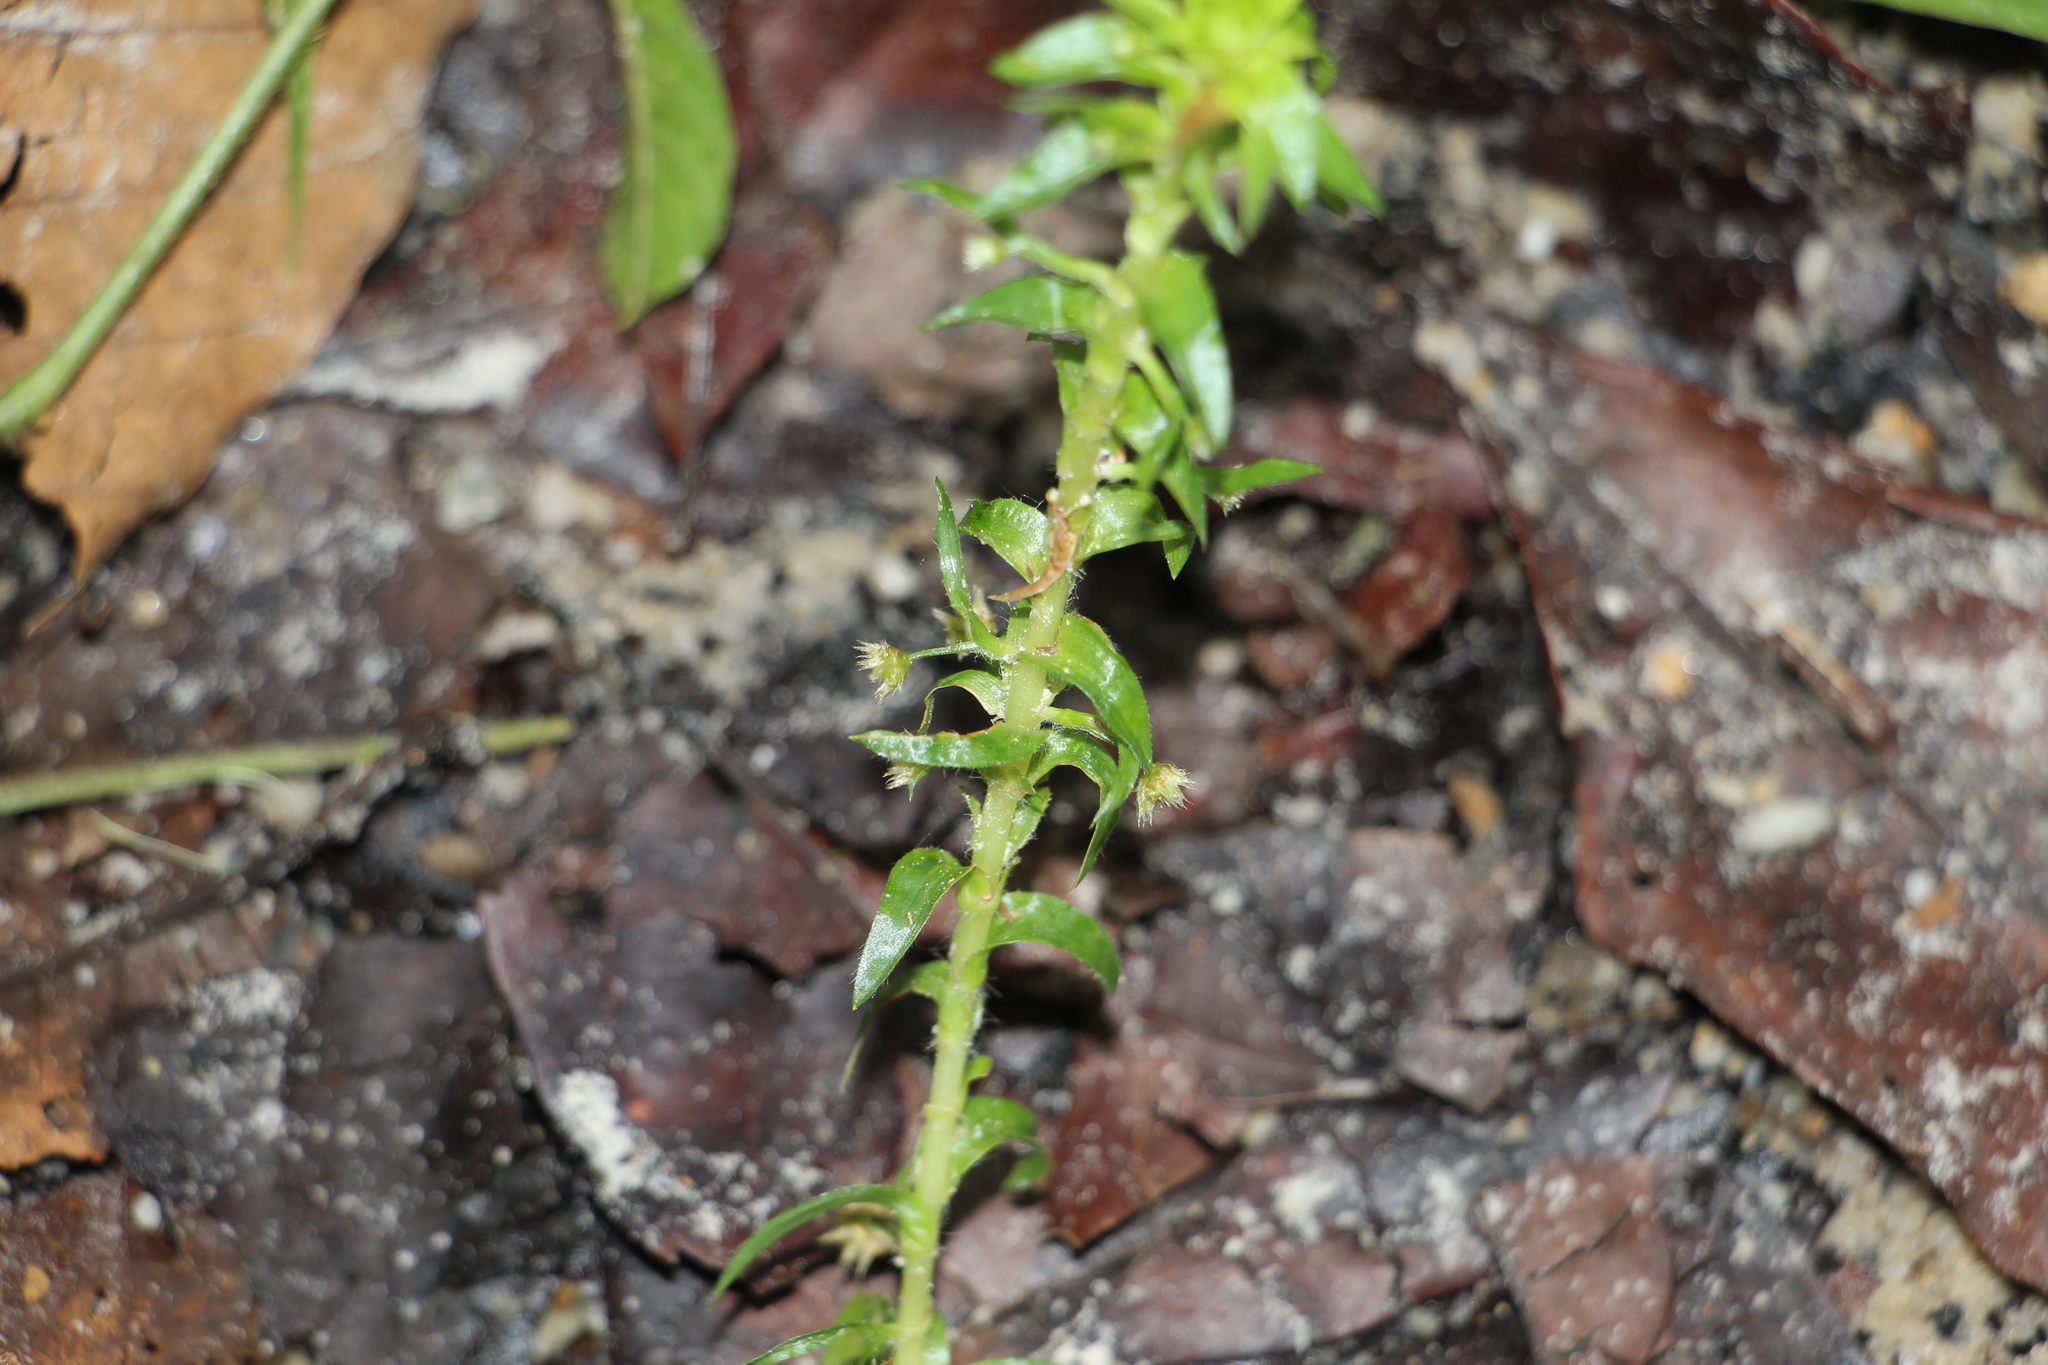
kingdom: Plantae
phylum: Tracheophyta
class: Liliopsida
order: Poales
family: Eriocaulaceae
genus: Paepalanthus
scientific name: Paepalanthus fluviatilis
